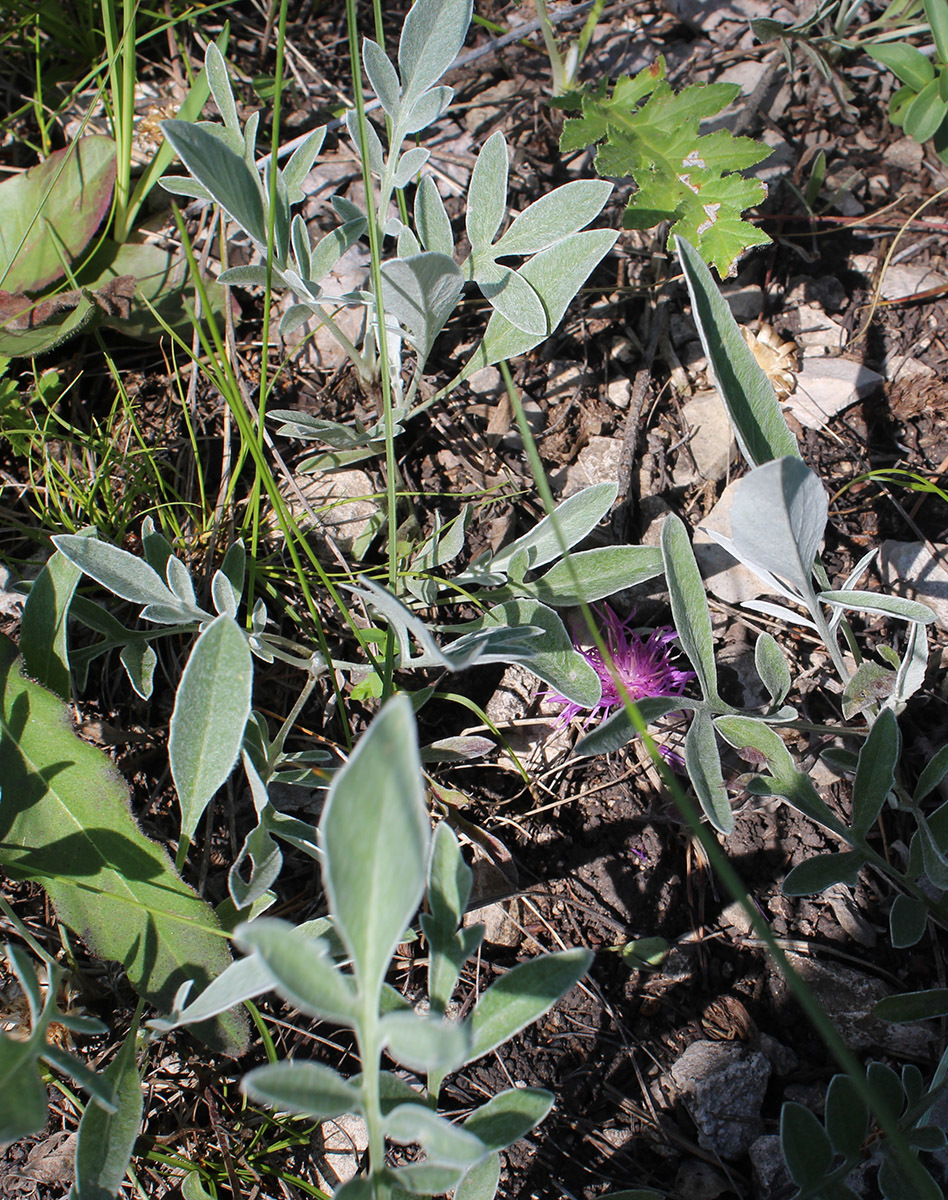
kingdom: Plantae
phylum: Tracheophyta
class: Magnoliopsida
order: Asterales
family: Asteraceae
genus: Psephellus
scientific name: Psephellus sumensis
